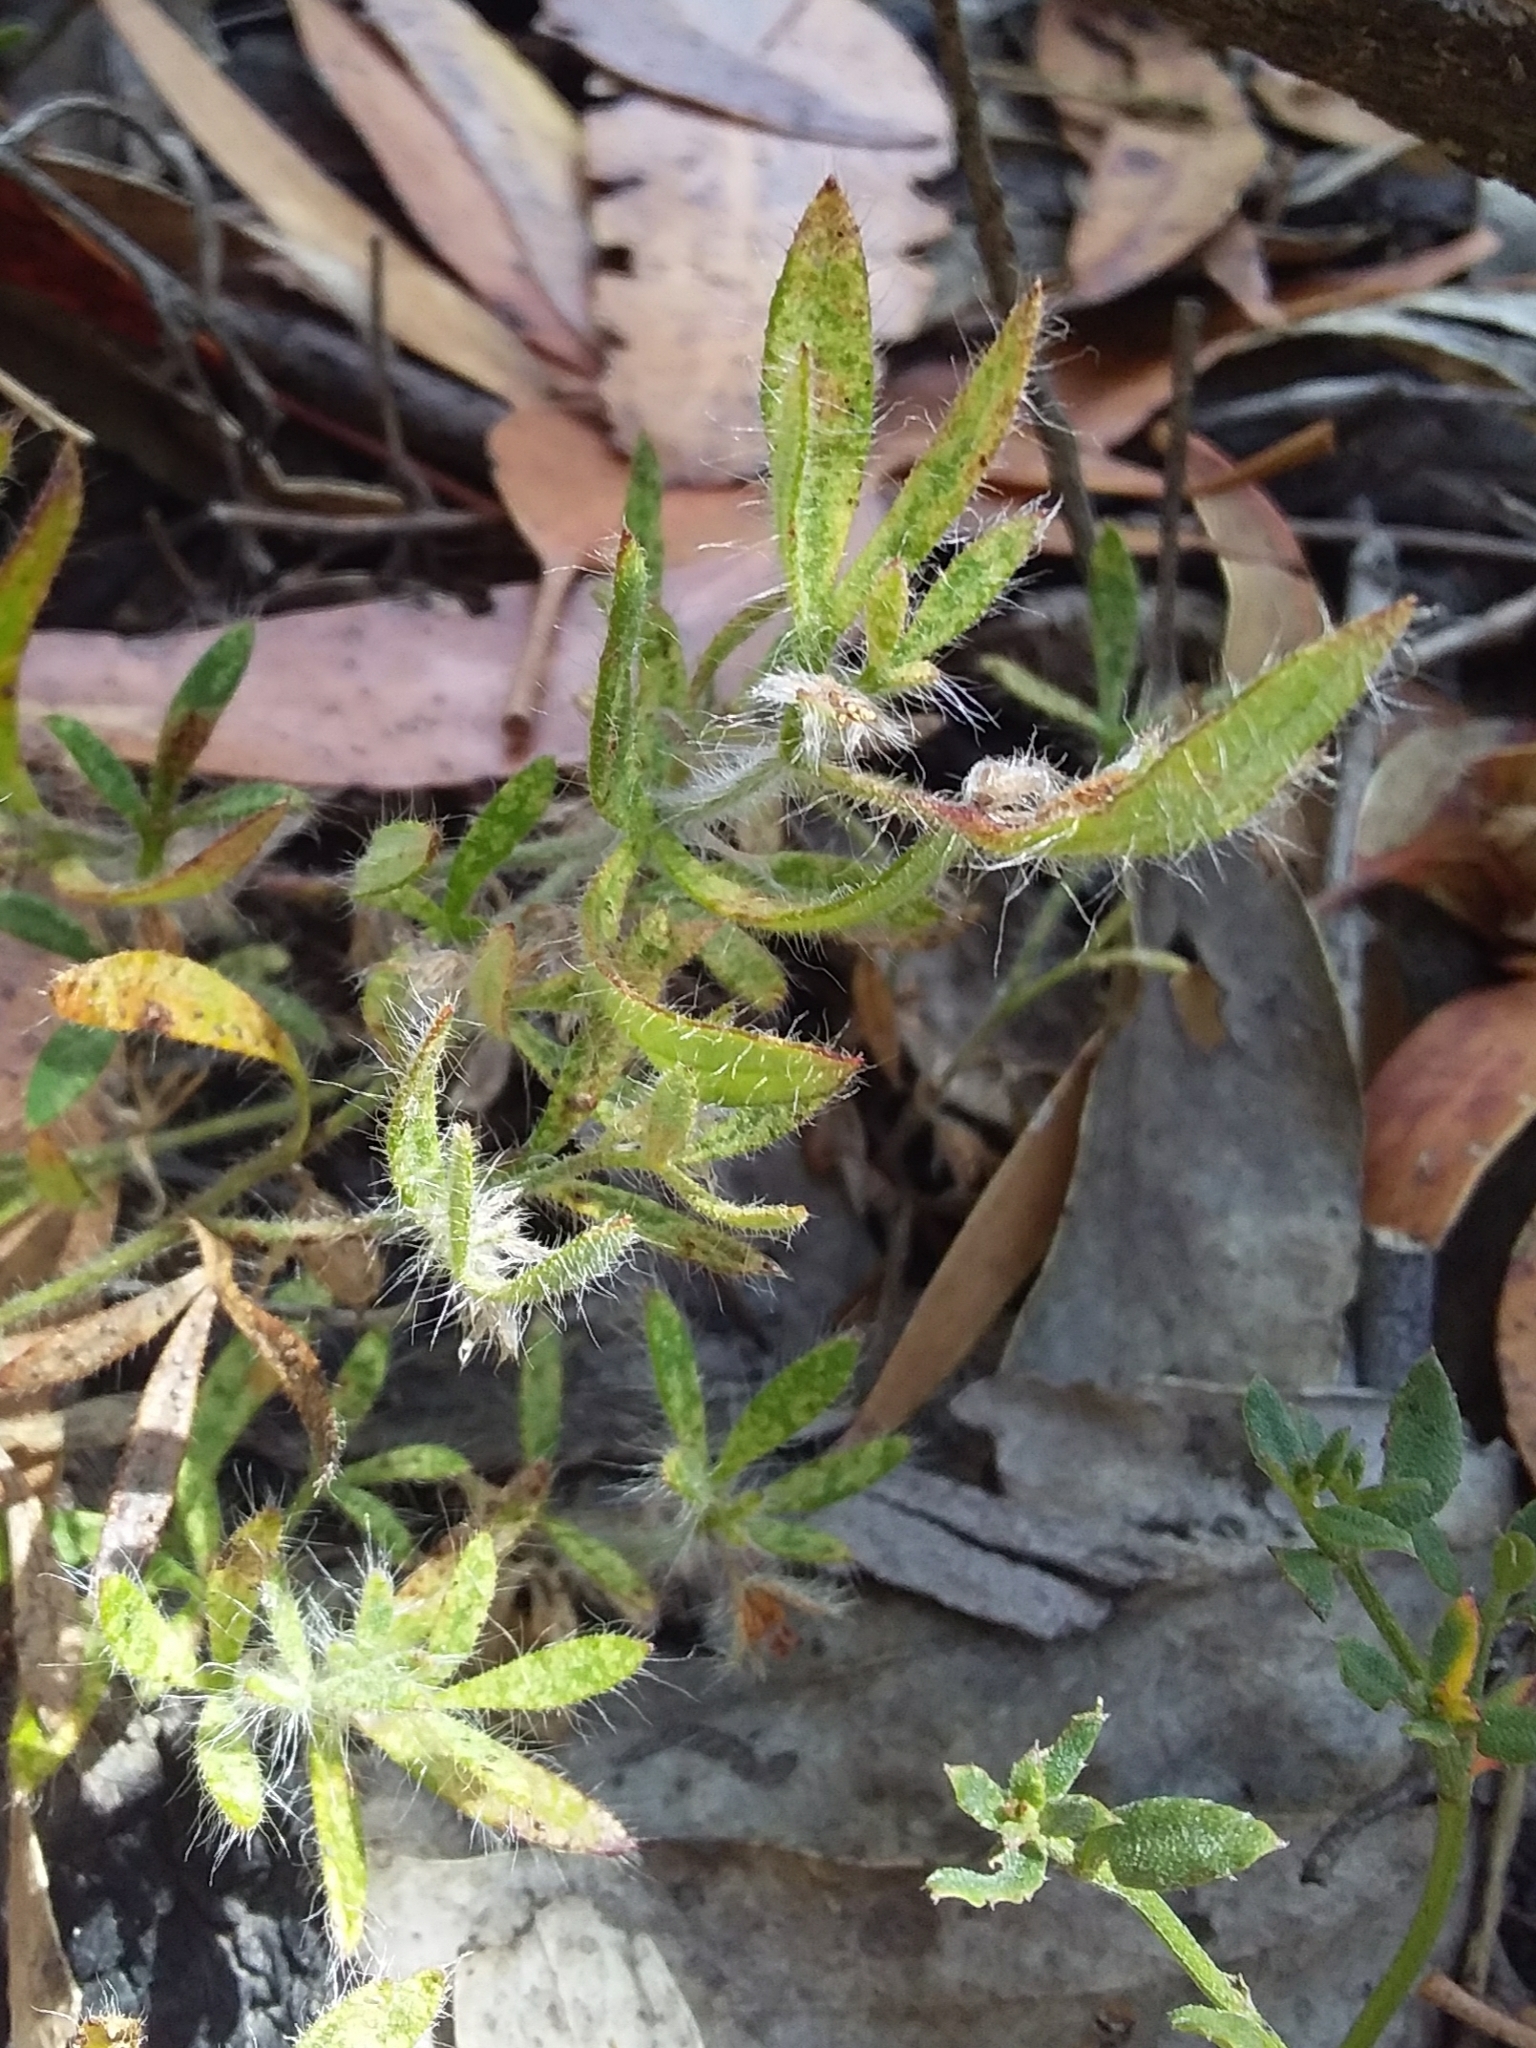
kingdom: Plantae
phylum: Tracheophyta
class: Magnoliopsida
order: Apiales
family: Apiaceae
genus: Xanthosia
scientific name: Xanthosia huegelii
